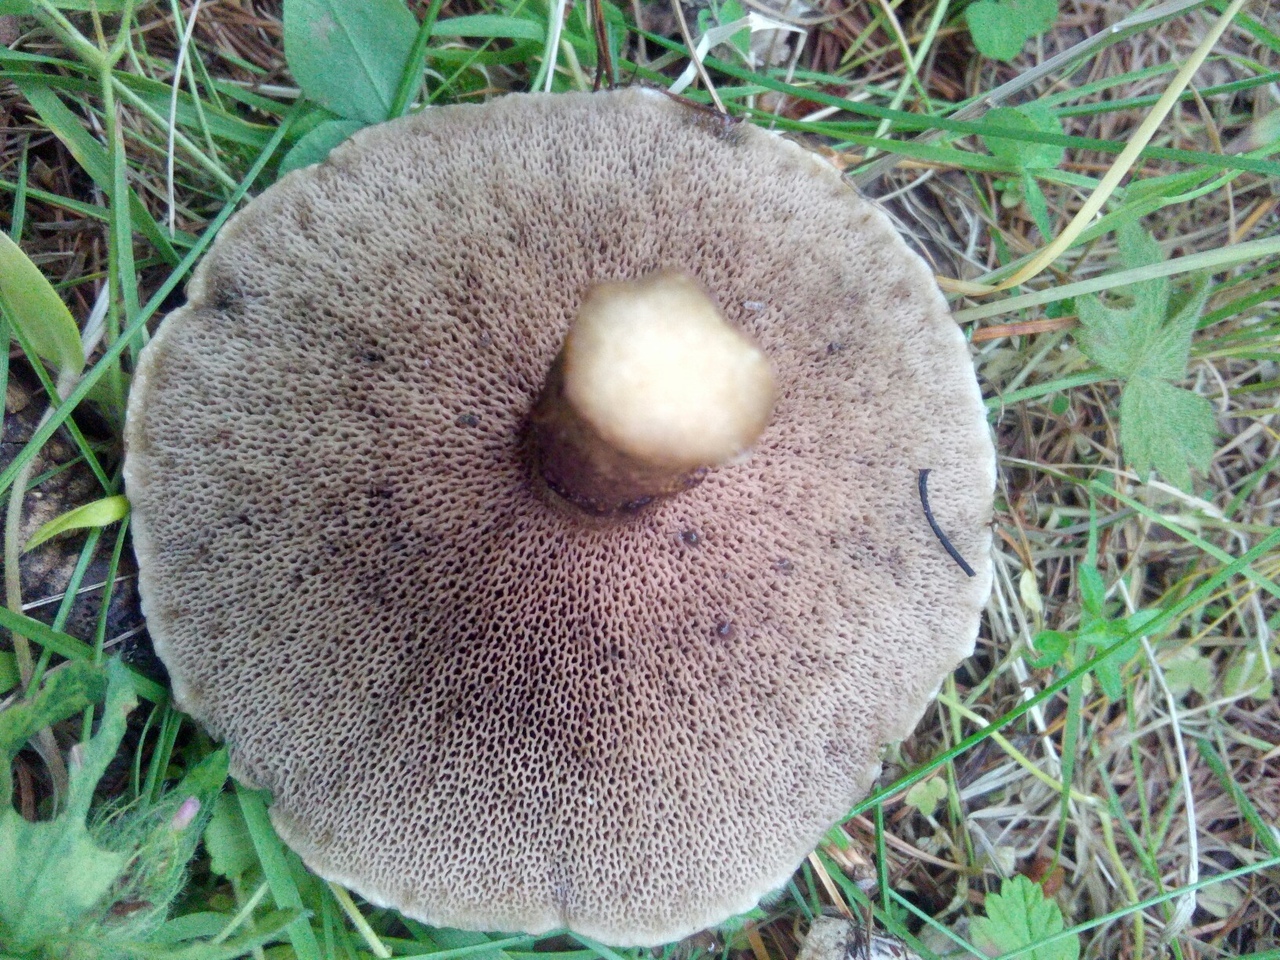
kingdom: Fungi
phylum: Basidiomycota
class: Agaricomycetes
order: Boletales
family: Suillaceae
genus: Suillus
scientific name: Suillus viscidus
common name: Sticky bolete
